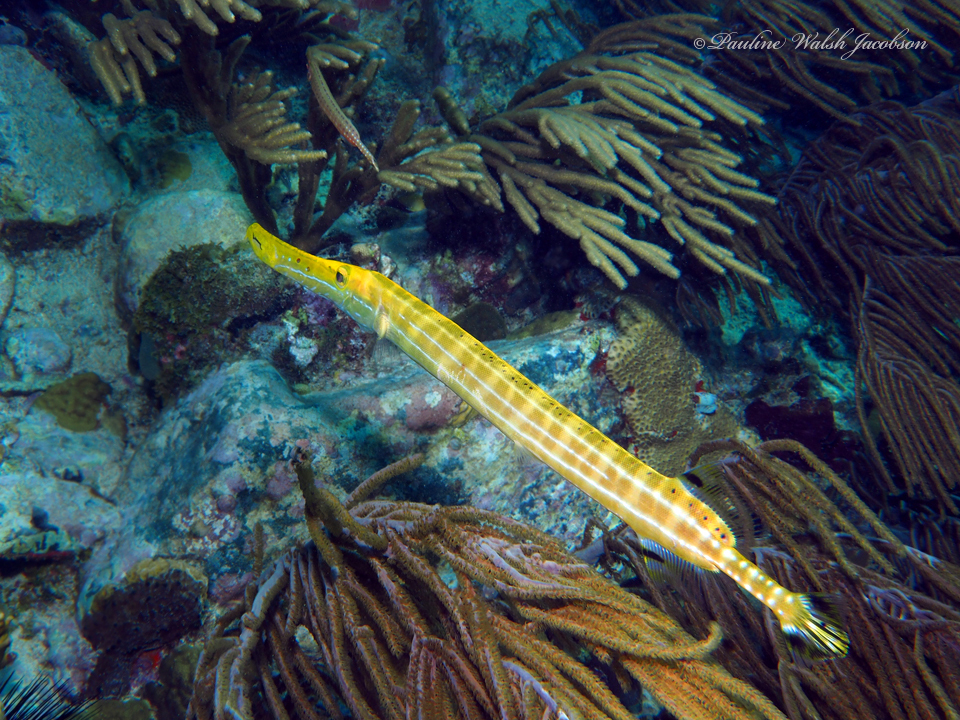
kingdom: Animalia
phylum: Chordata
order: Syngnathiformes
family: Aulostomidae
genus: Aulostomus
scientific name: Aulostomus maculatus
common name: West atlantic trumpetfish
